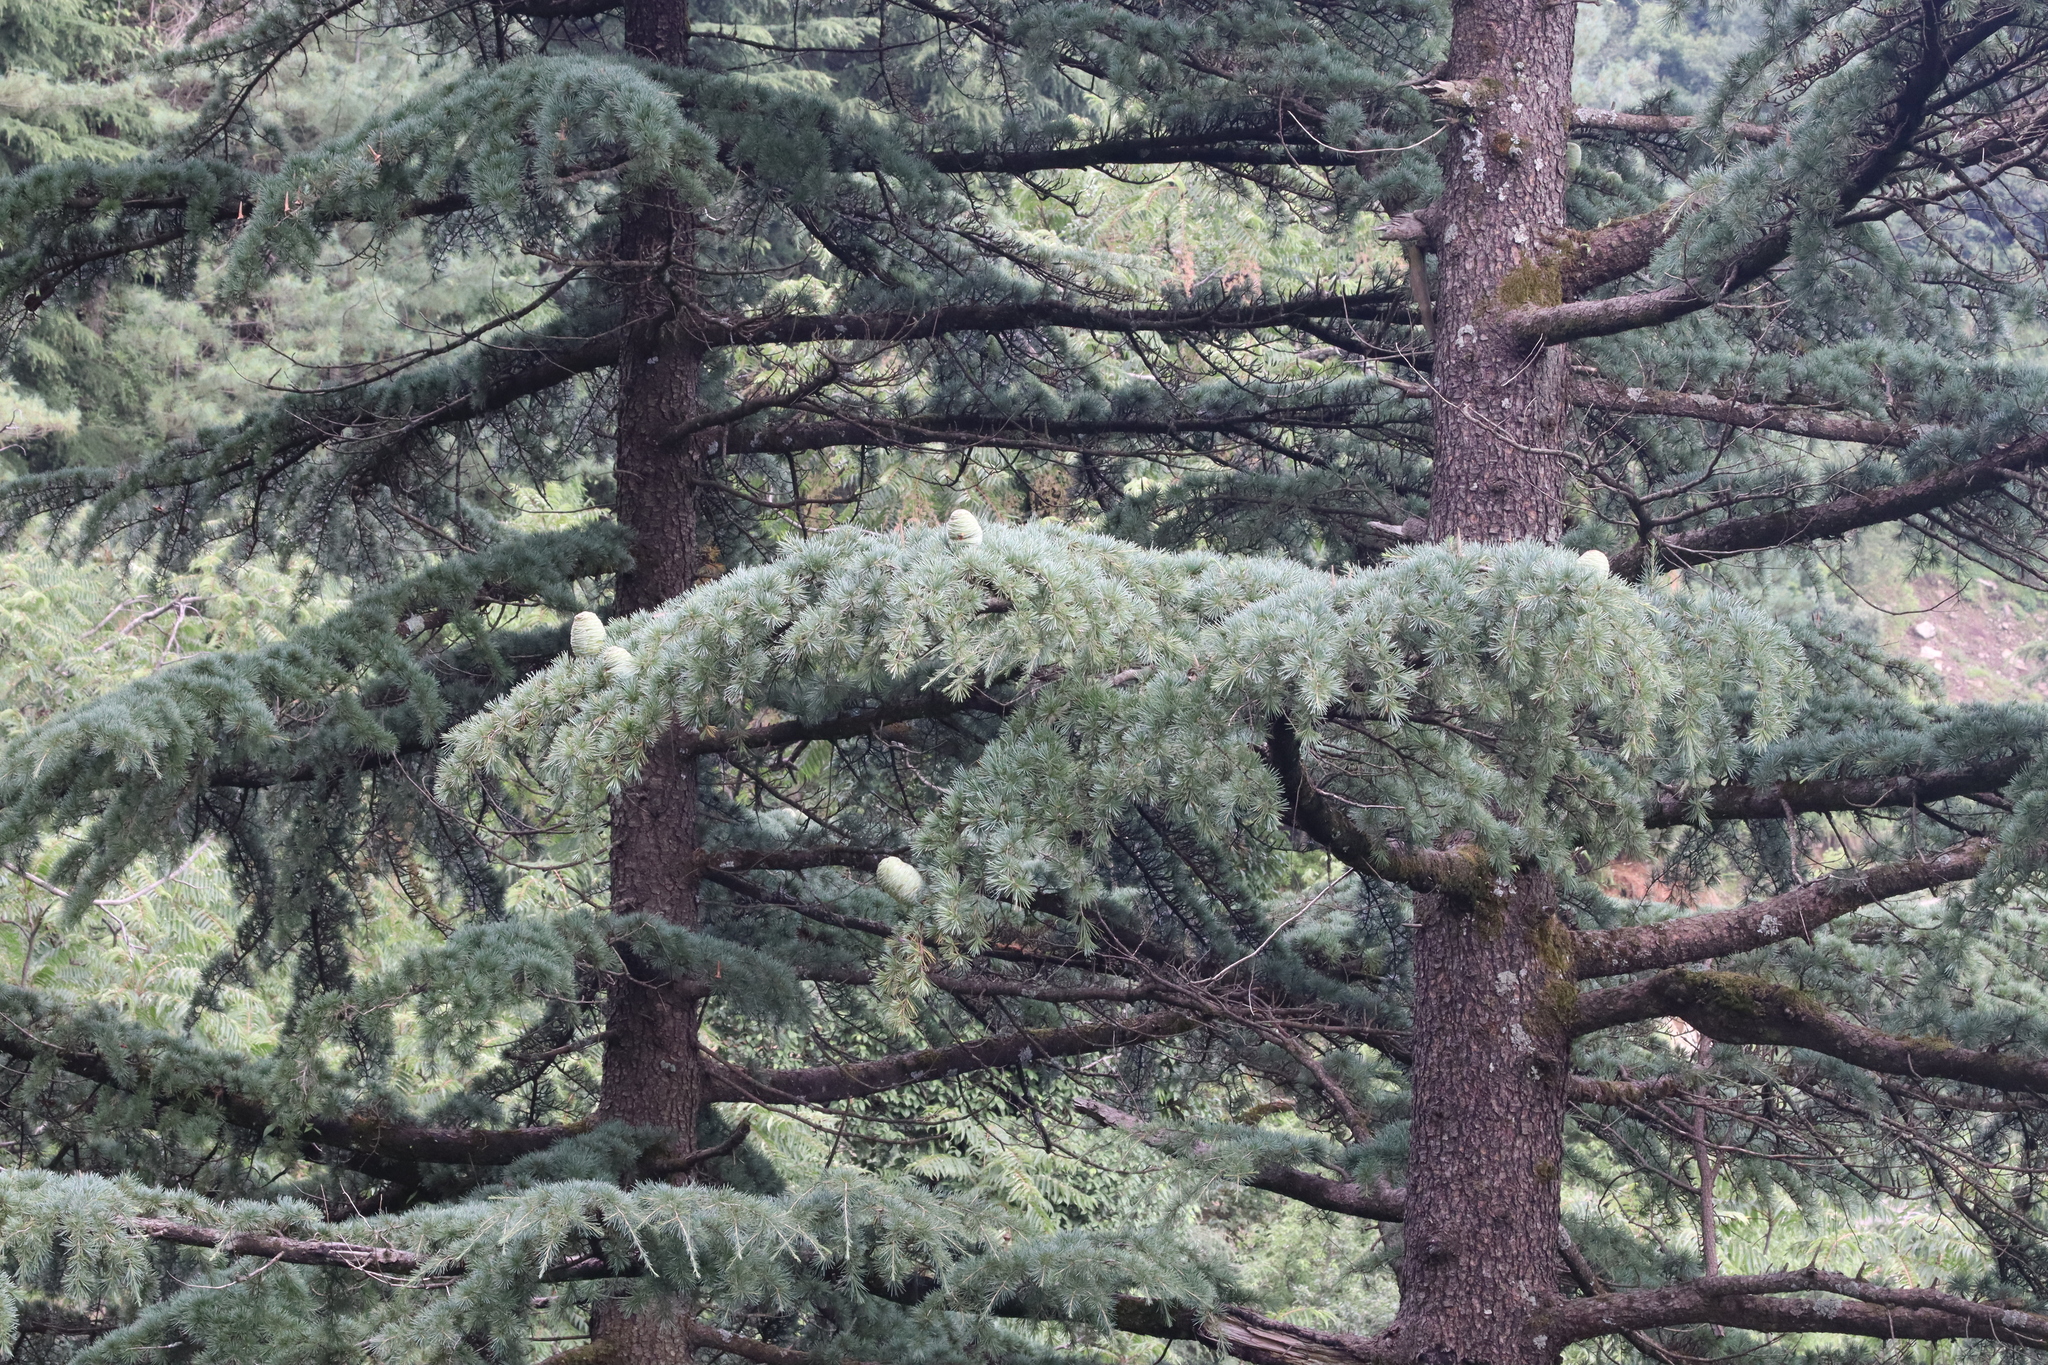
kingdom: Plantae
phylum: Tracheophyta
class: Pinopsida
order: Pinales
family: Pinaceae
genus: Cedrus
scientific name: Cedrus deodara
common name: Deodar
